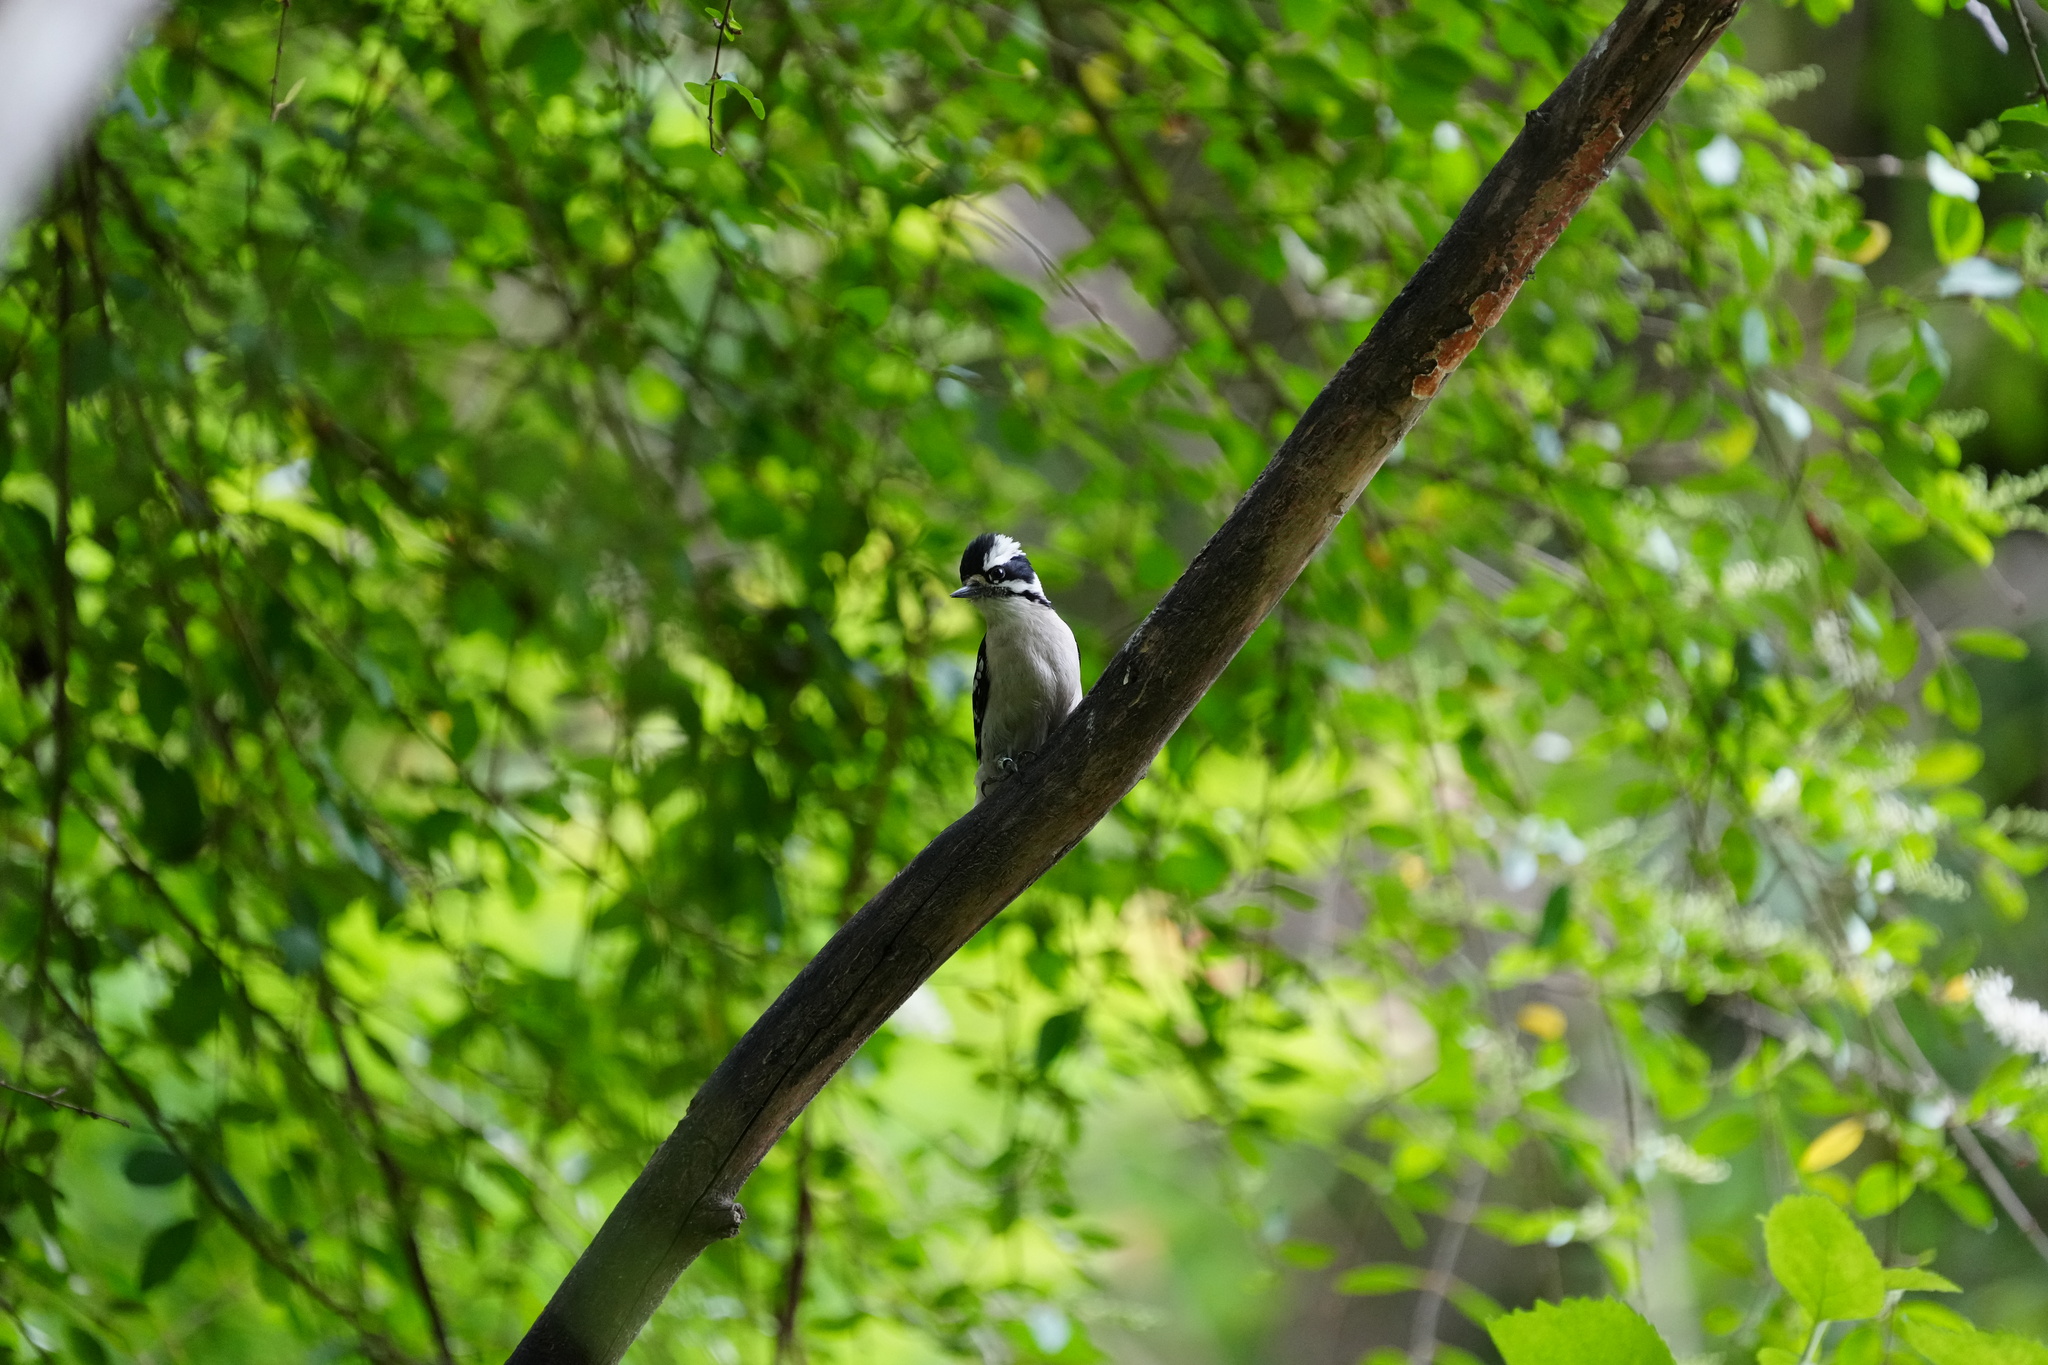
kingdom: Animalia
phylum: Chordata
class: Aves
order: Piciformes
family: Picidae
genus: Dryobates
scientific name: Dryobates pubescens
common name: Downy woodpecker
